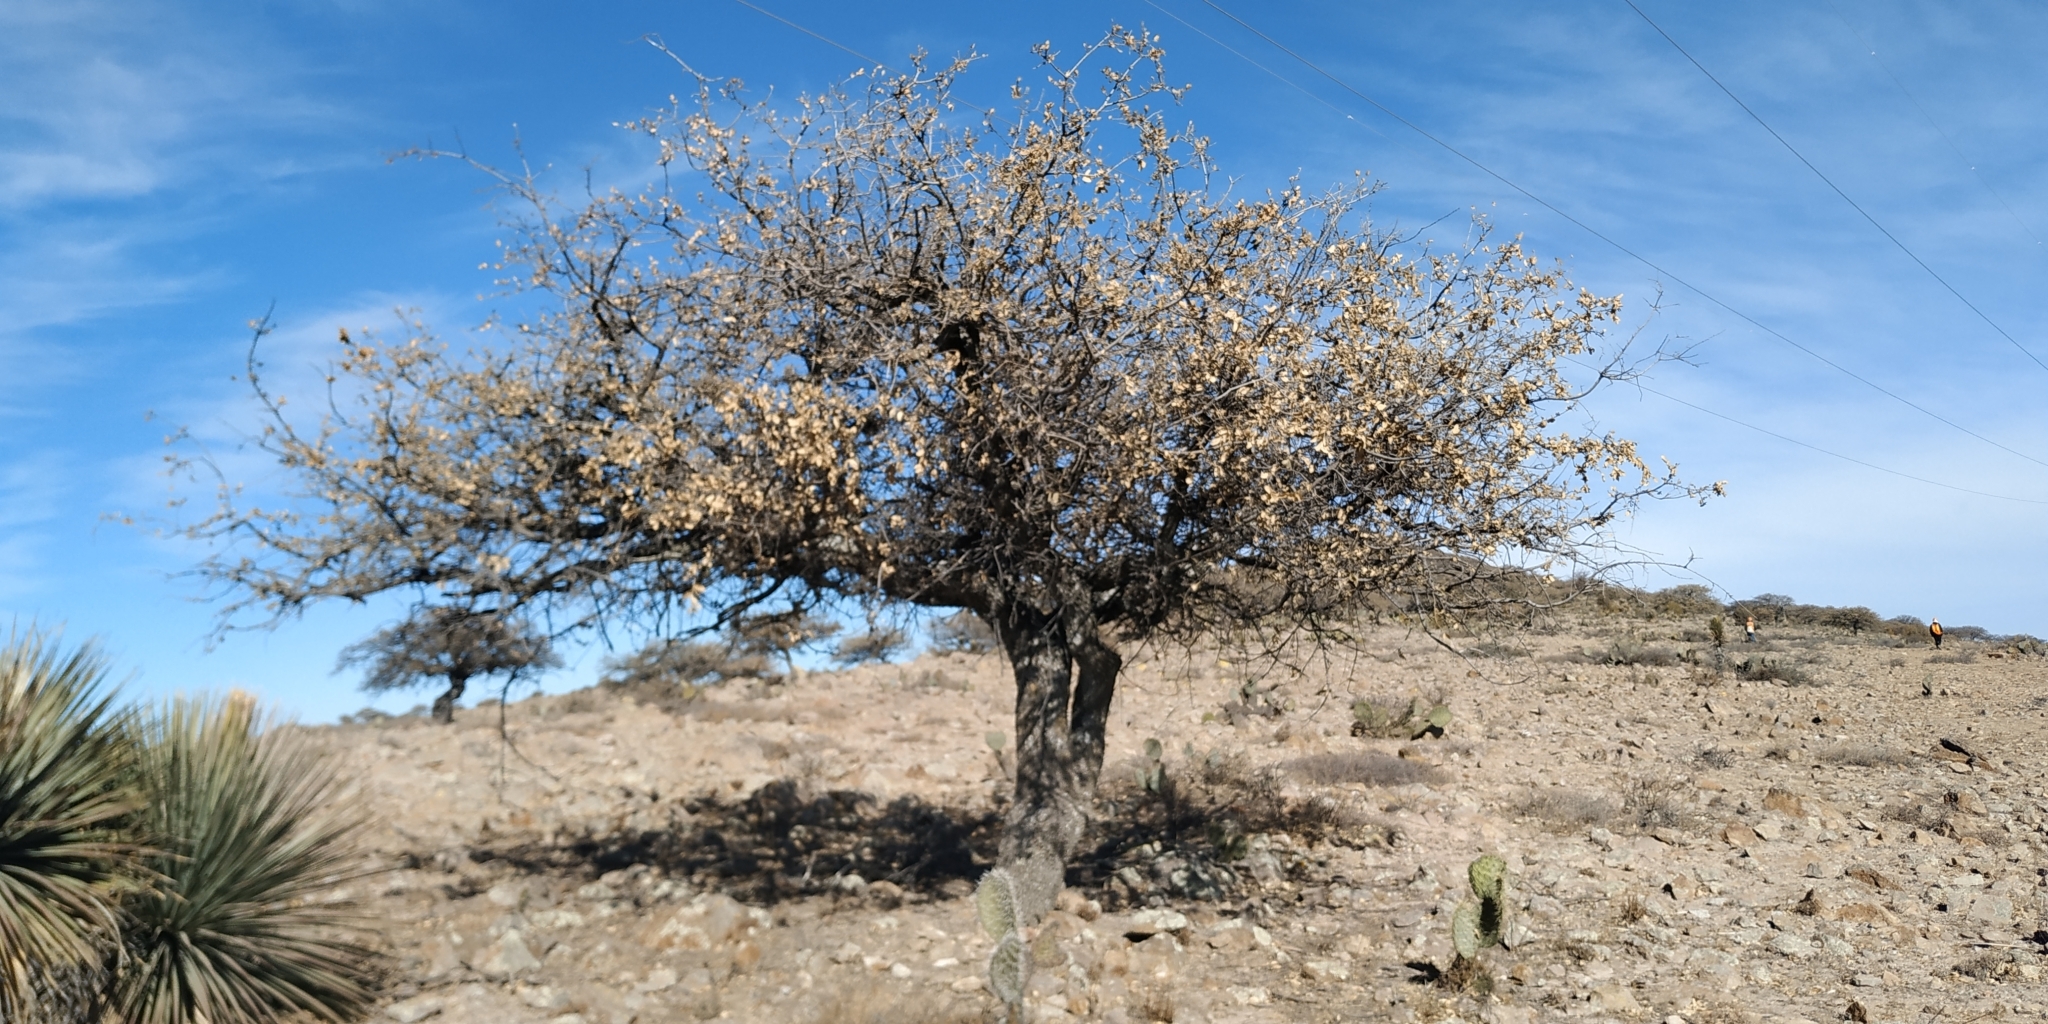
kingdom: Plantae
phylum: Tracheophyta
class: Magnoliopsida
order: Fagales
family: Fagaceae
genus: Quercus
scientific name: Quercus
